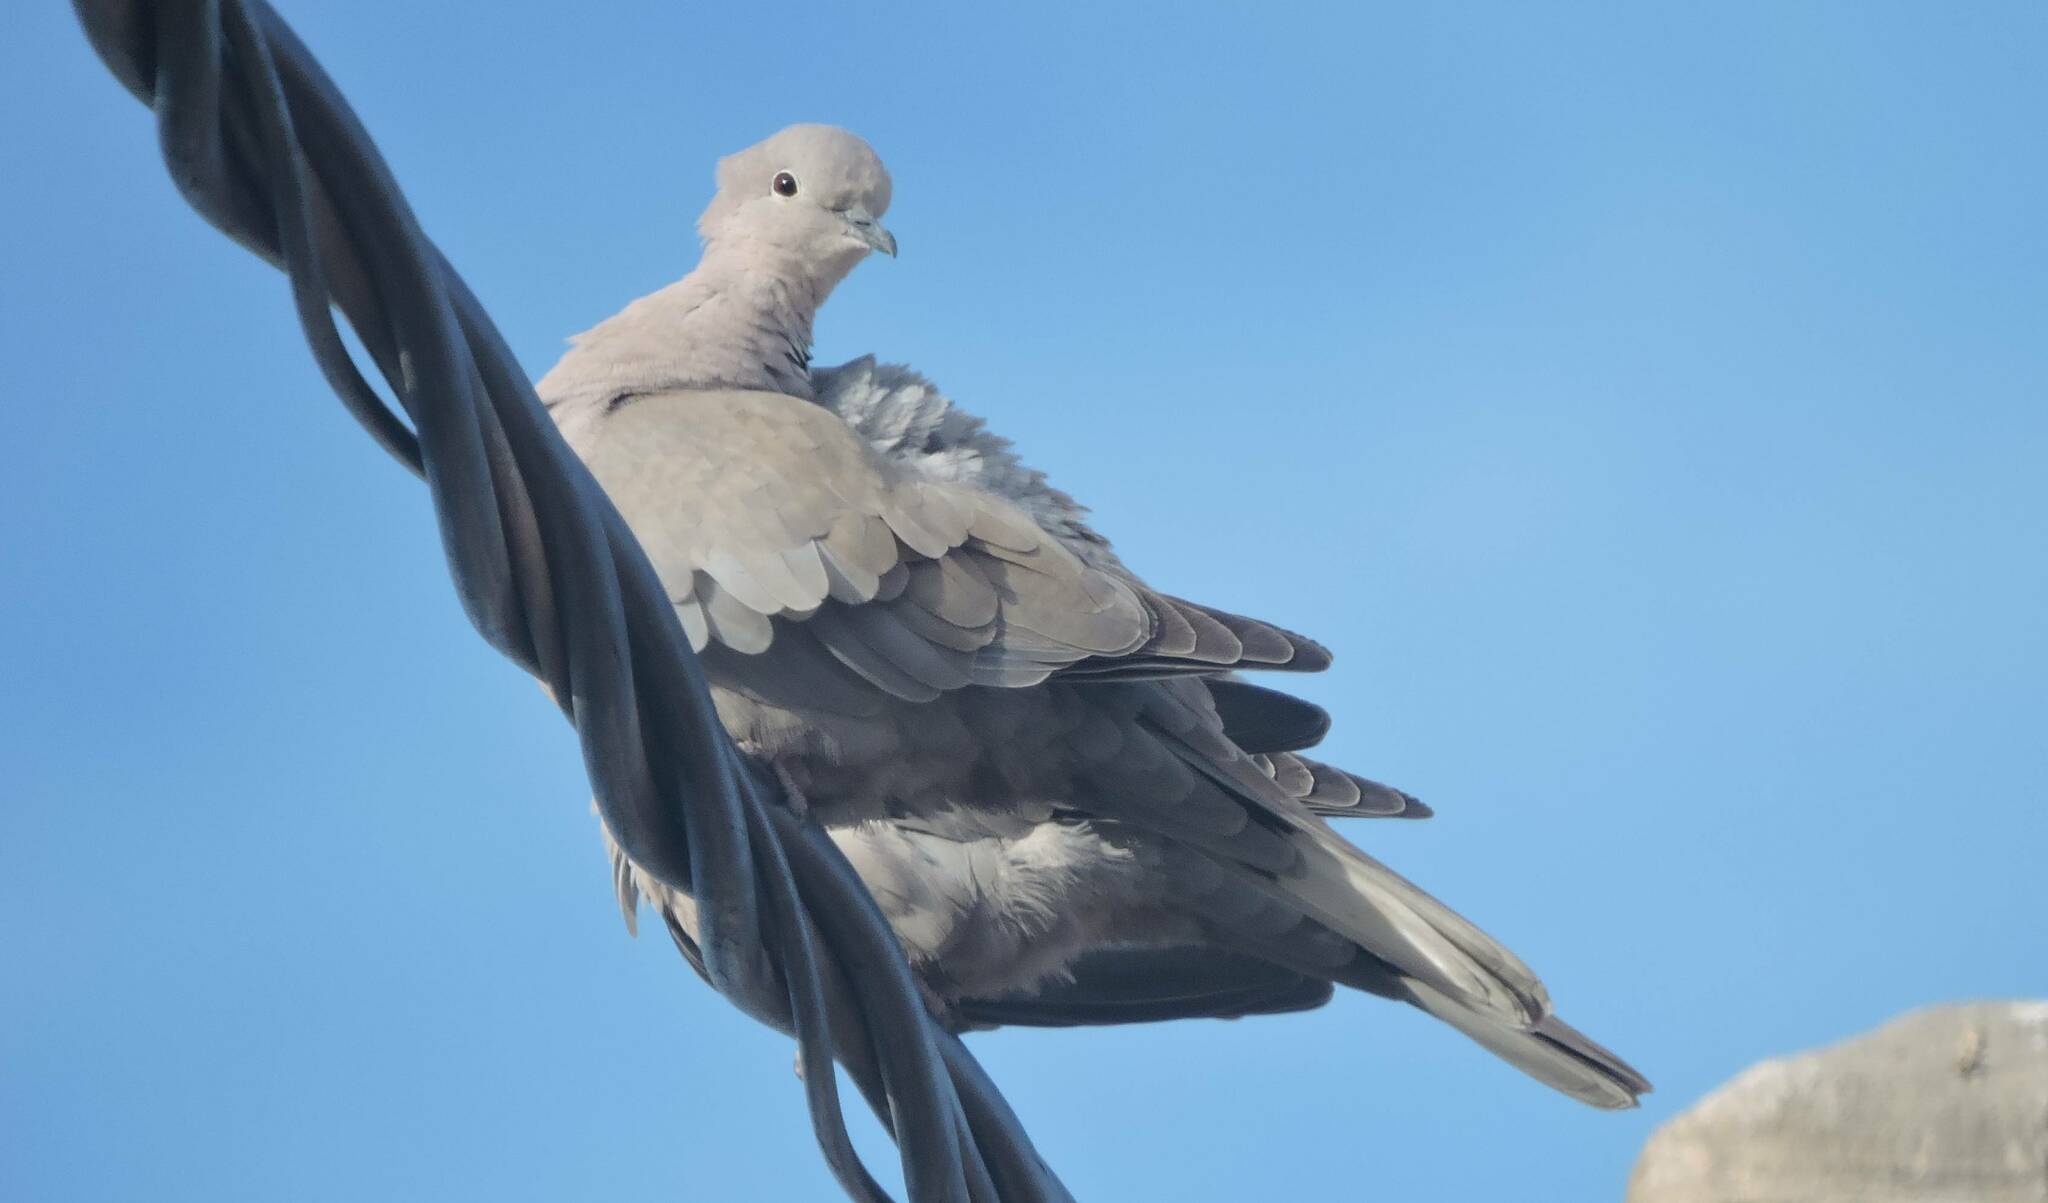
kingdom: Animalia
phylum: Chordata
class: Aves
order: Columbiformes
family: Columbidae
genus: Streptopelia
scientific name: Streptopelia decaocto
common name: Eurasian collared dove
